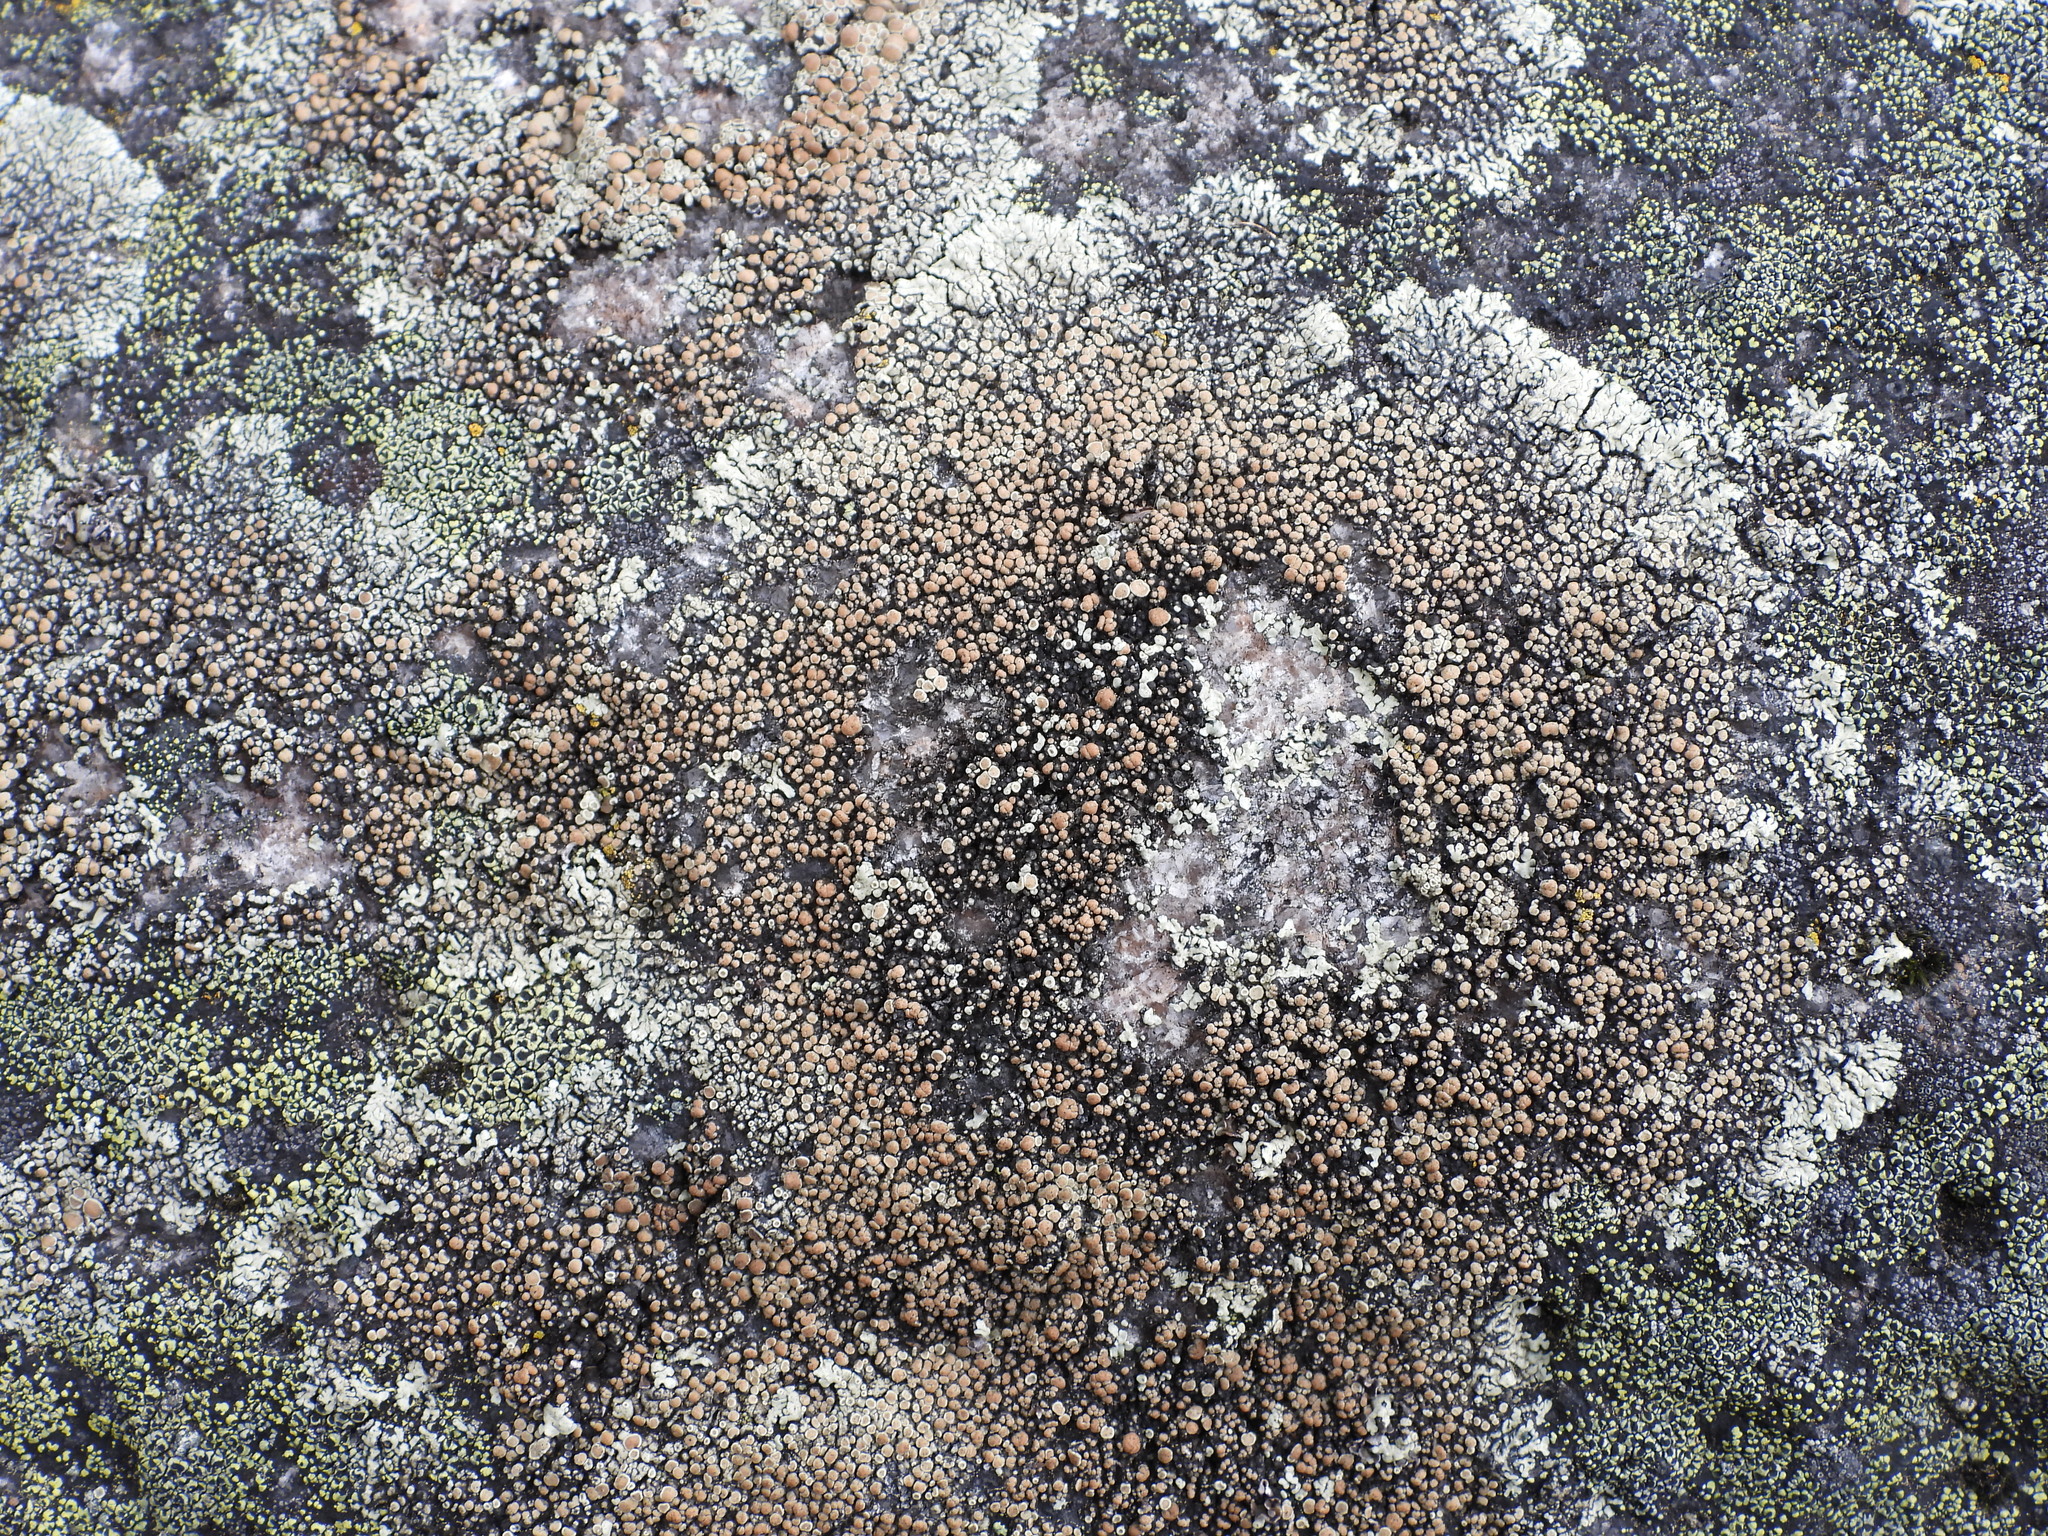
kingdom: Fungi
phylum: Ascomycota
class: Lecanoromycetes
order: Lecanorales
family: Lecanoraceae
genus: Protoparmeliopsis
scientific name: Protoparmeliopsis muralis
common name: Stonewall rim lichen
